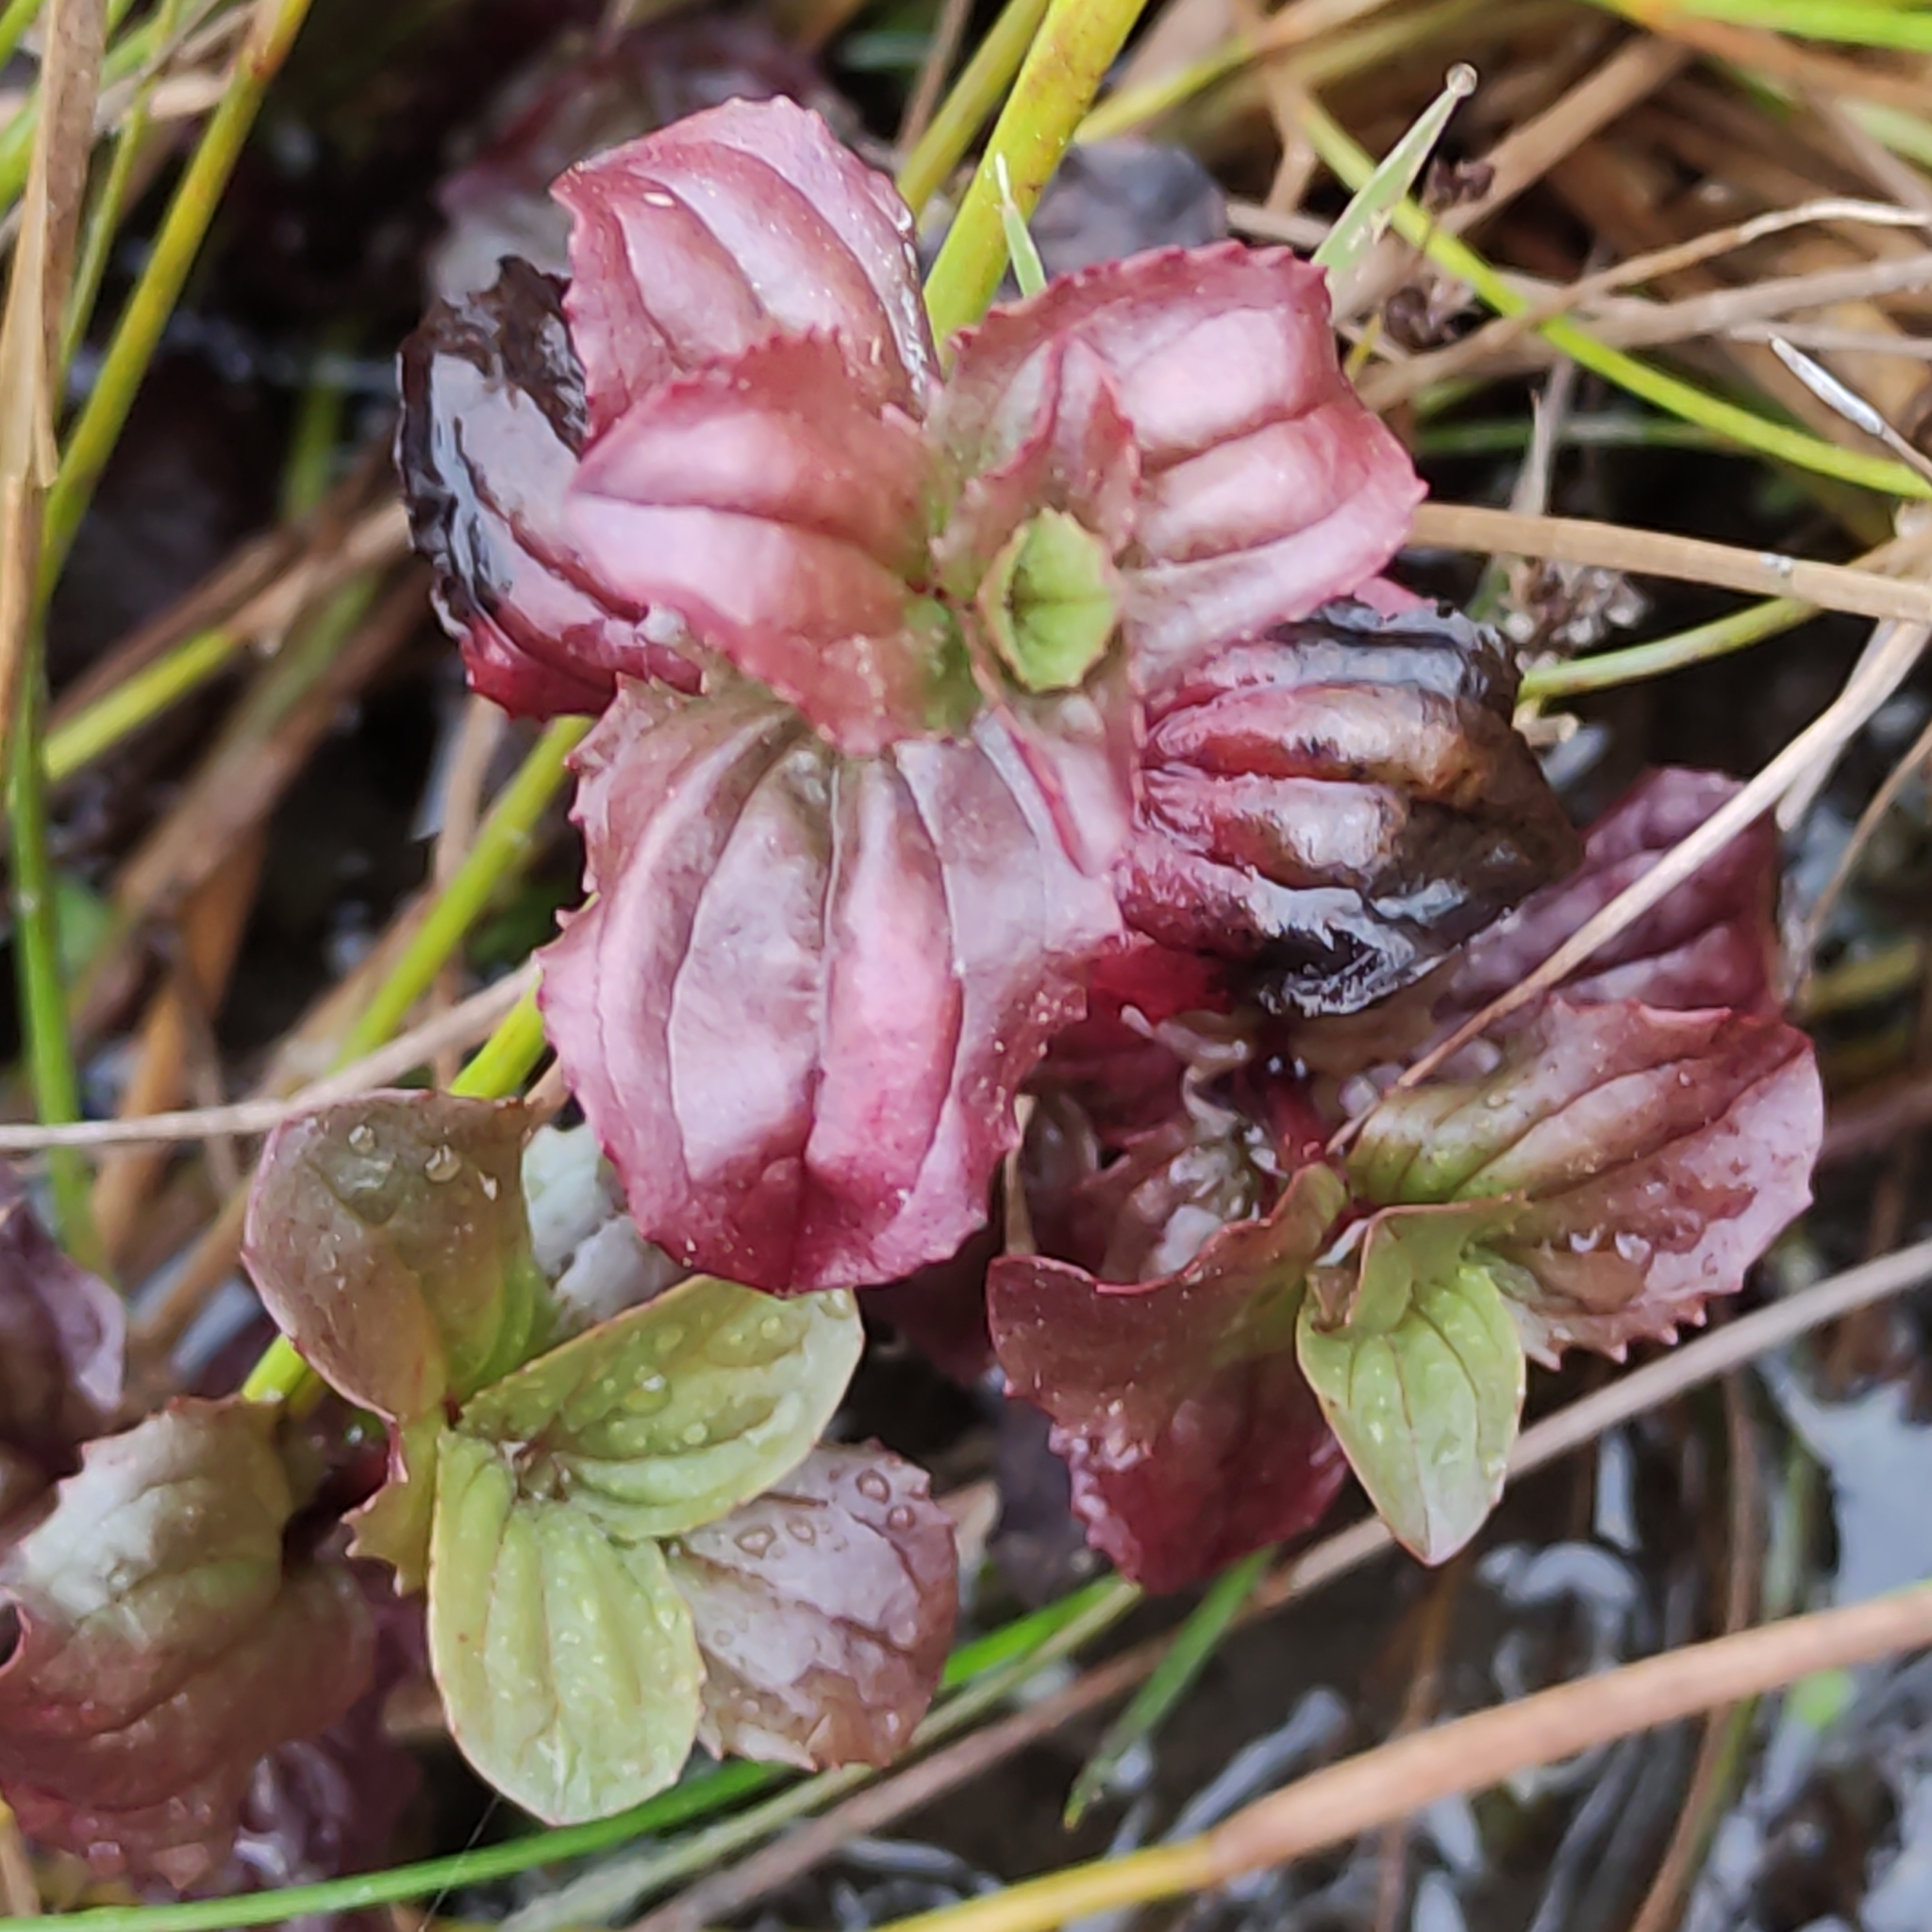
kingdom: Plantae
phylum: Tracheophyta
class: Magnoliopsida
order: Lamiales
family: Phrymaceae
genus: Erythranthe
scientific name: Erythranthe guttata
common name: Monkeyflower
